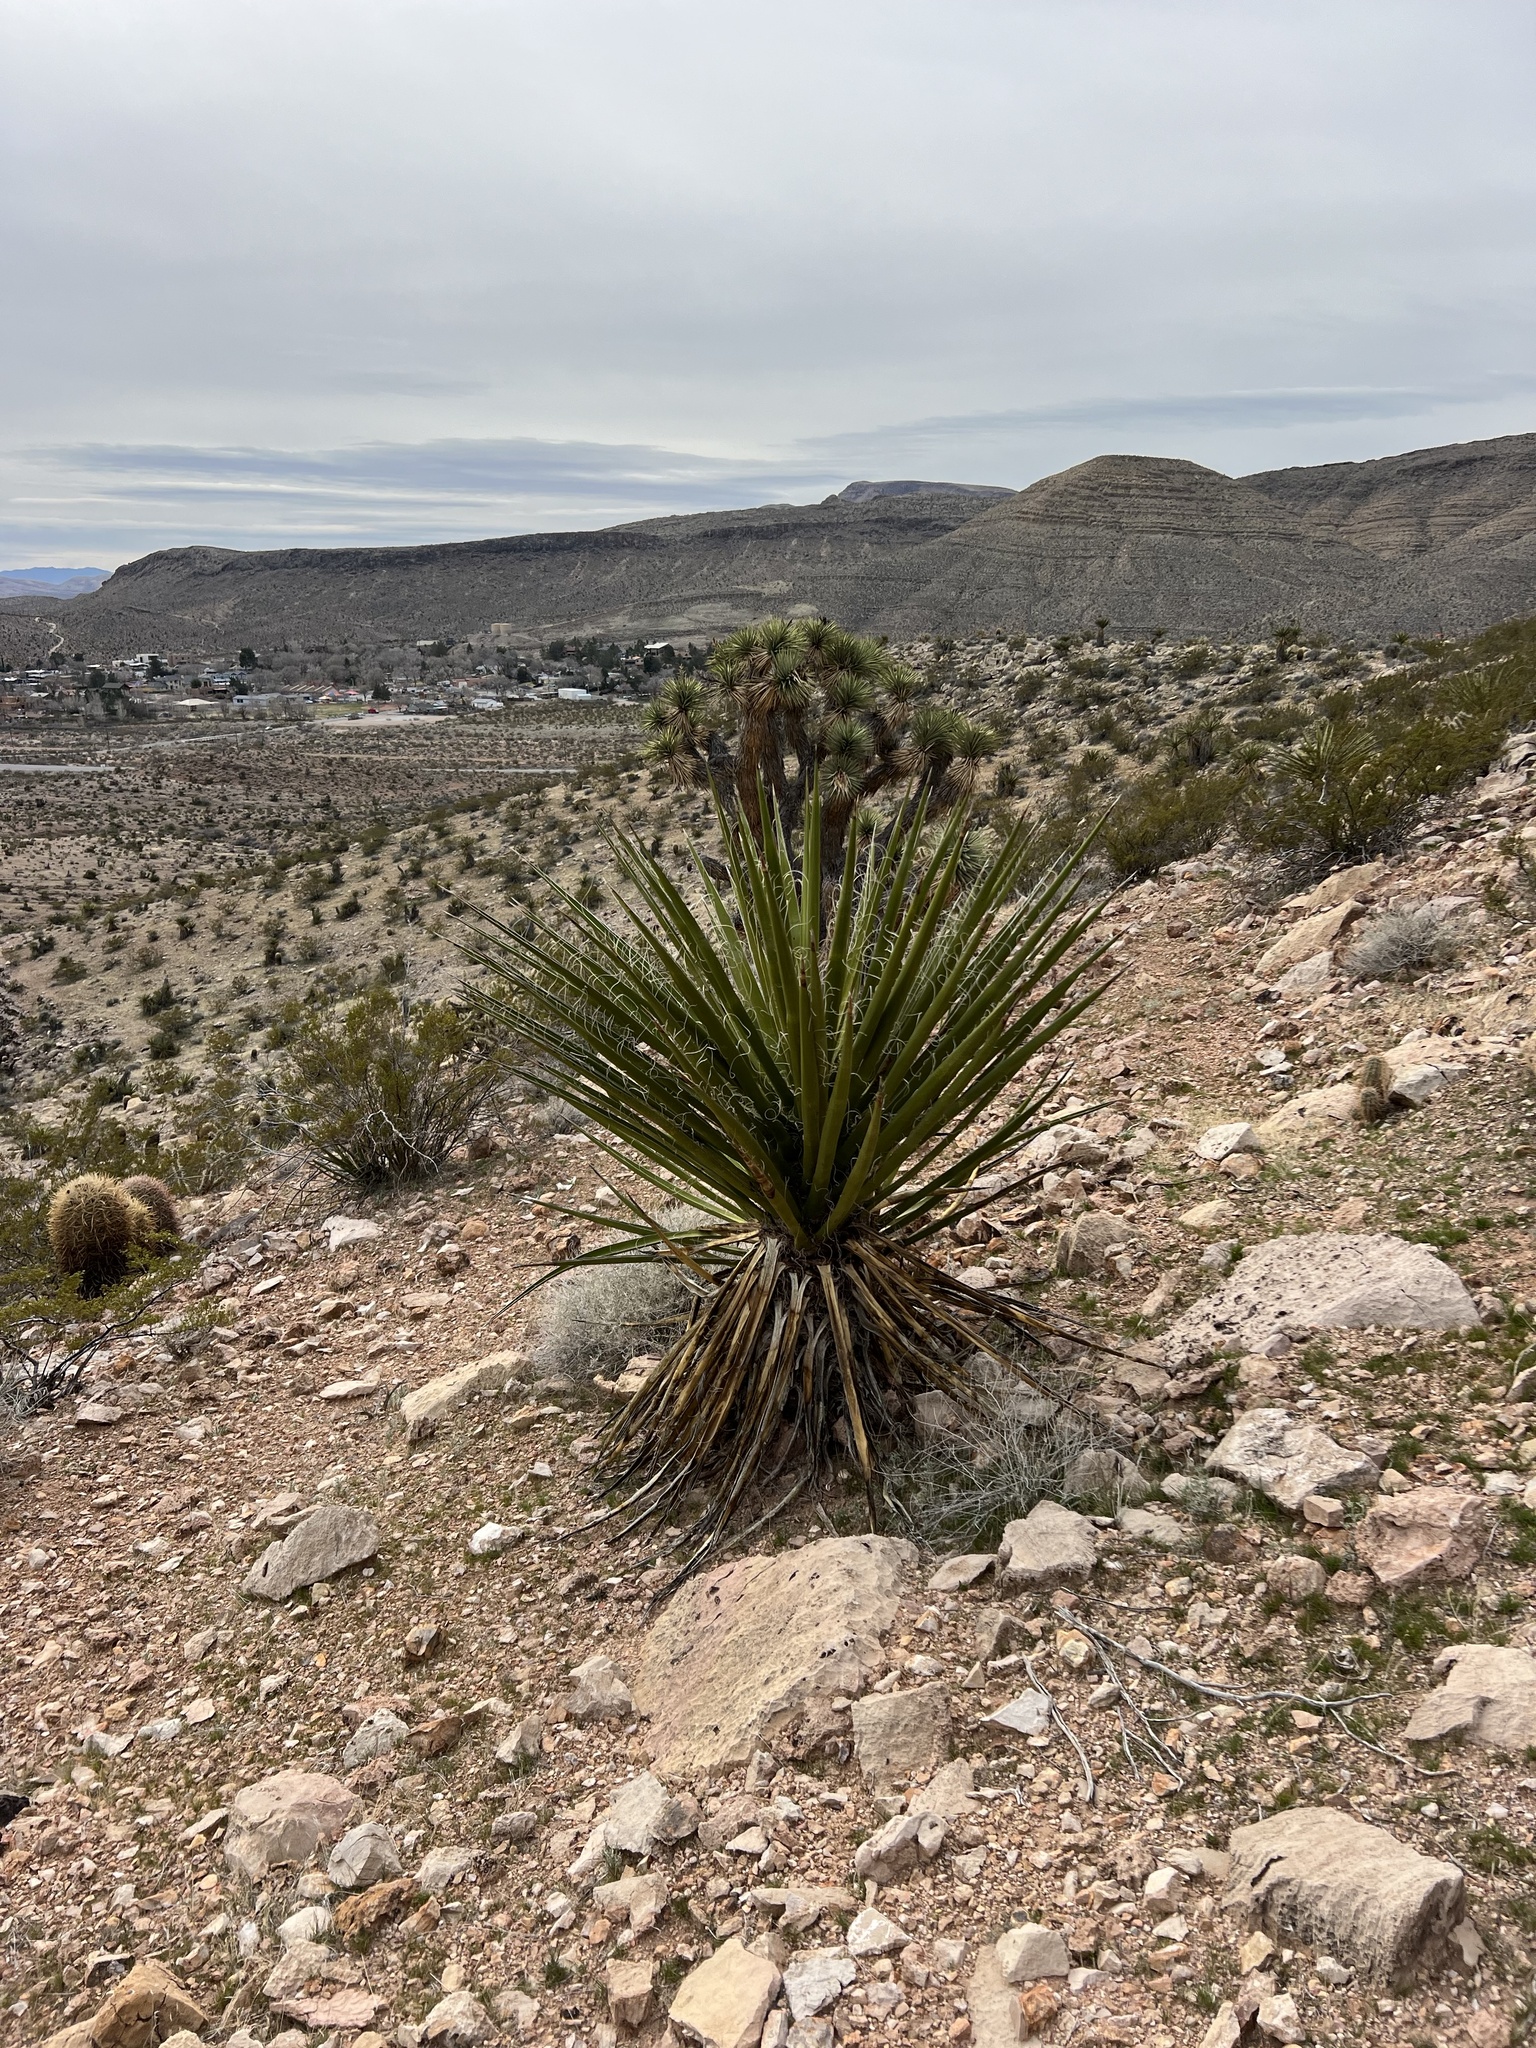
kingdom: Plantae
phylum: Tracheophyta
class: Liliopsida
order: Asparagales
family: Asparagaceae
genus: Yucca
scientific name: Yucca schidigera
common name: Mojave yucca
